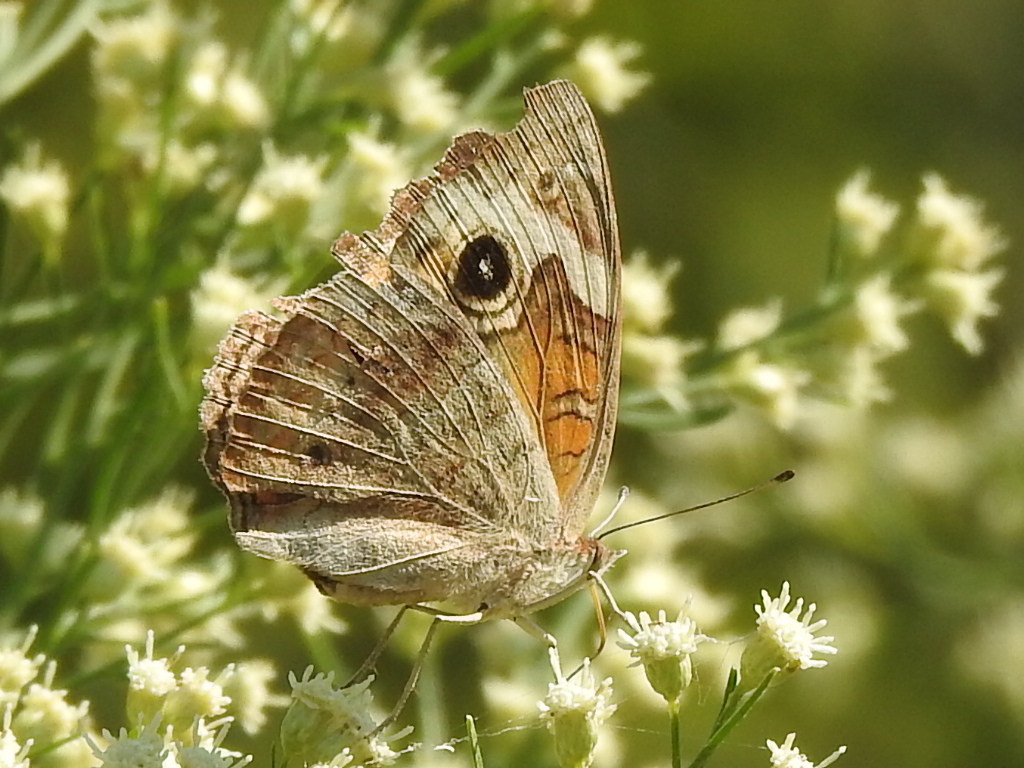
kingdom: Animalia
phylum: Arthropoda
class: Insecta
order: Lepidoptera
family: Nymphalidae
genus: Junonia
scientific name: Junonia coenia
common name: Common buckeye
